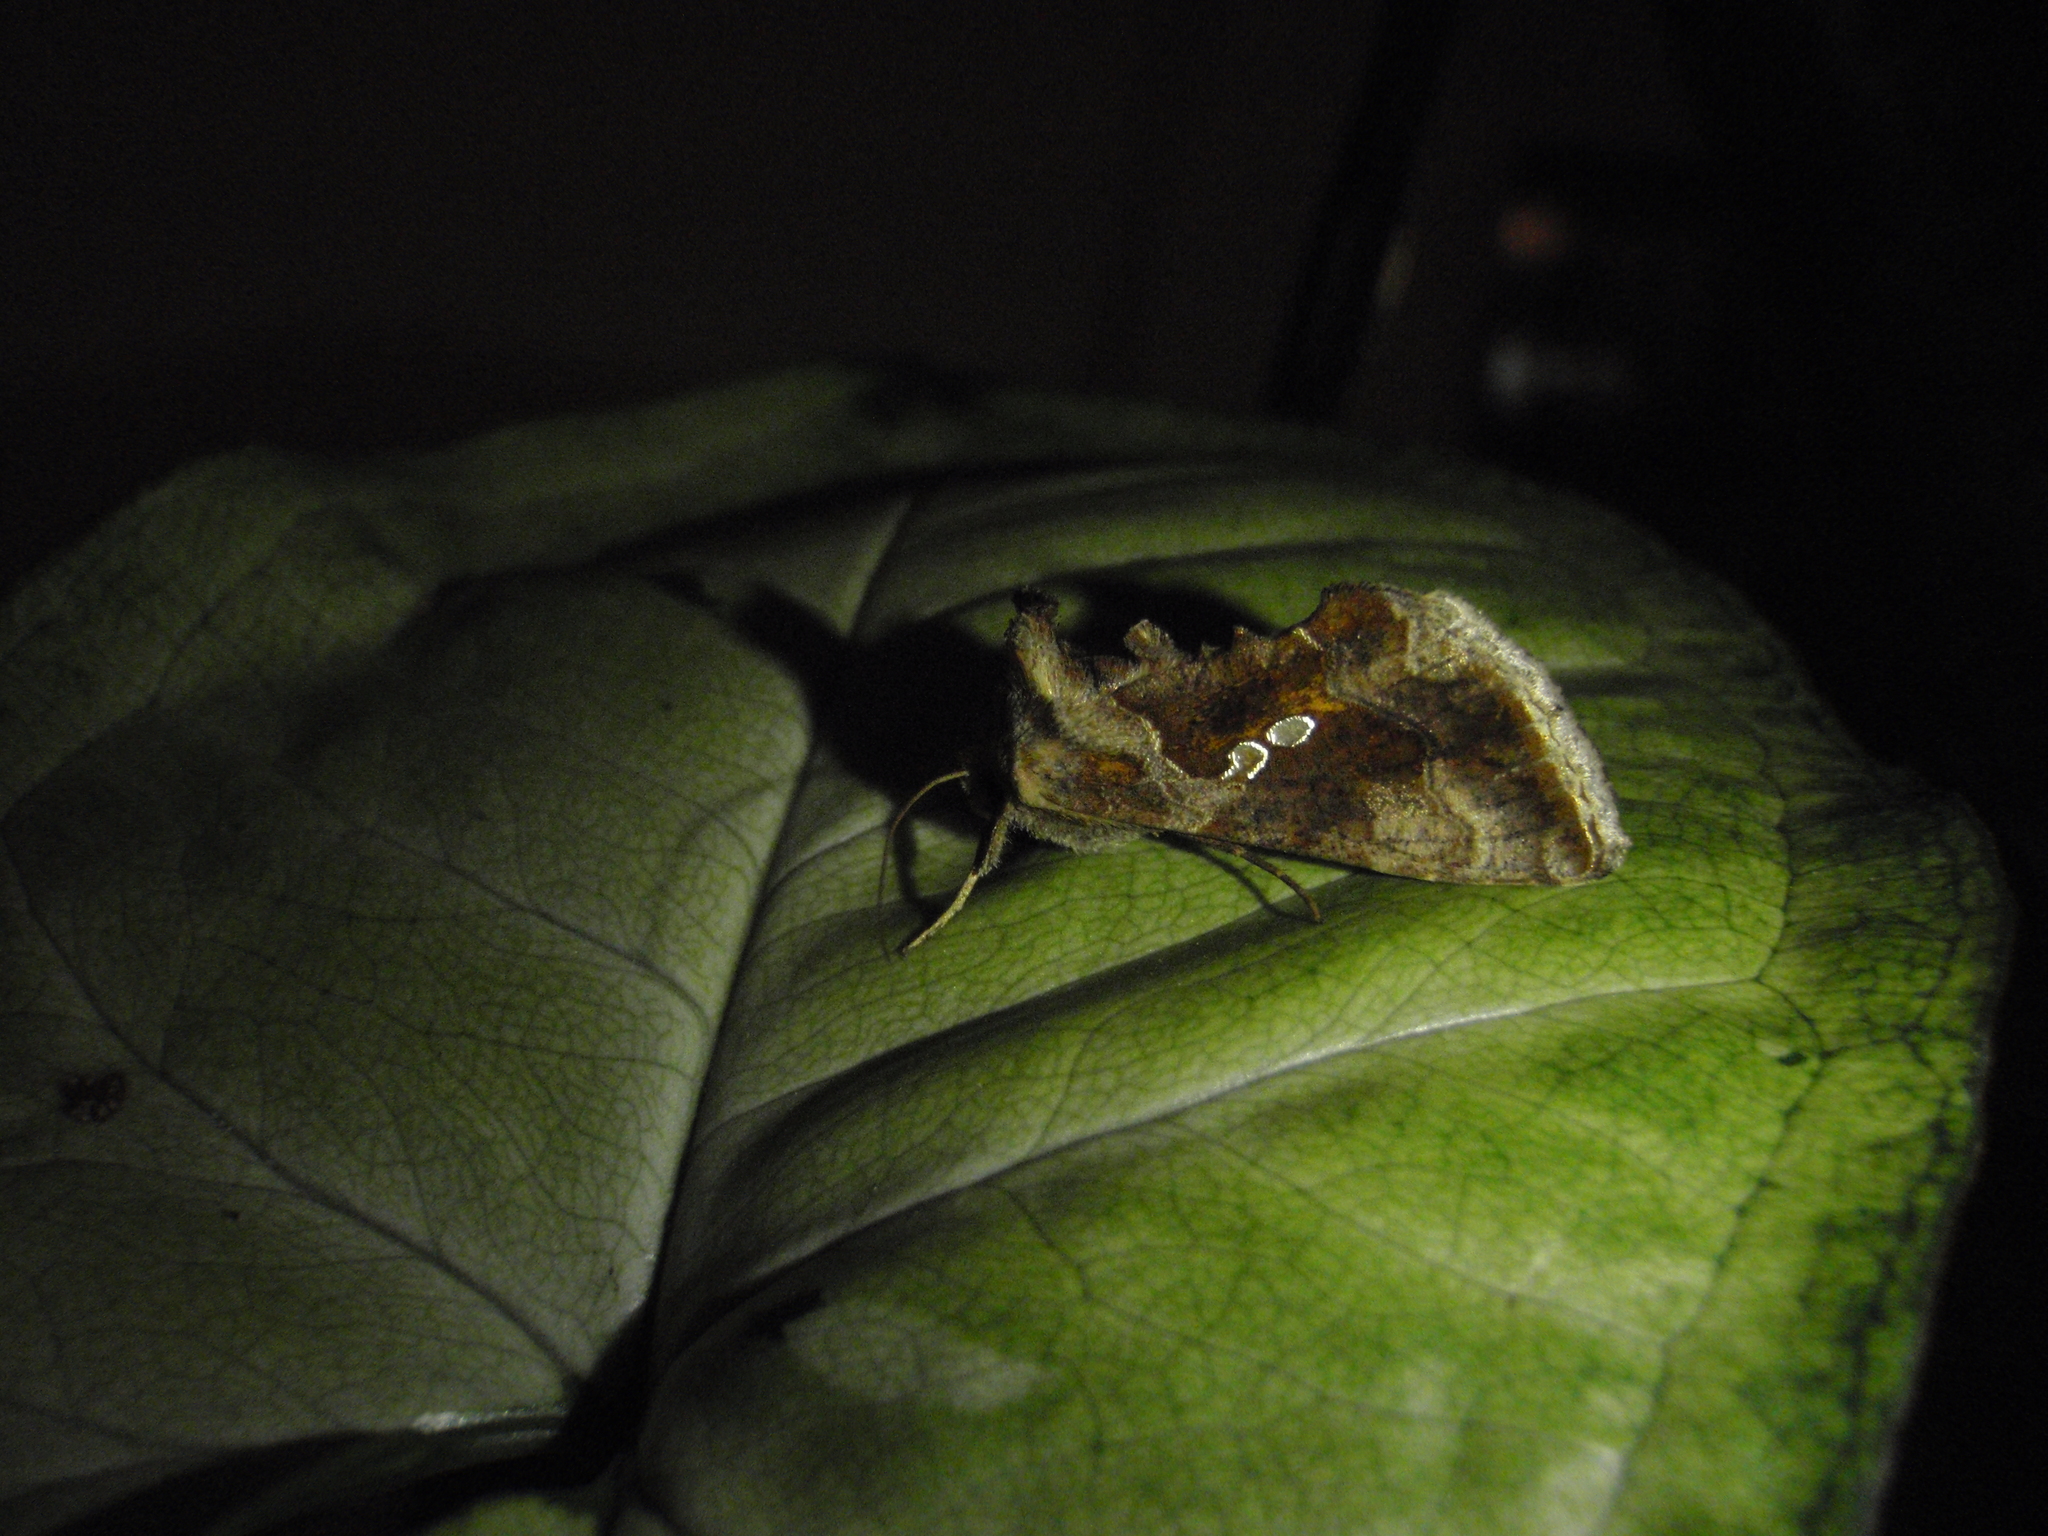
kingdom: Animalia
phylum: Arthropoda
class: Insecta
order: Lepidoptera
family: Noctuidae
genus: Chrysodeixis
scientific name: Chrysodeixis chalcites
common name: Golden twin-spot
